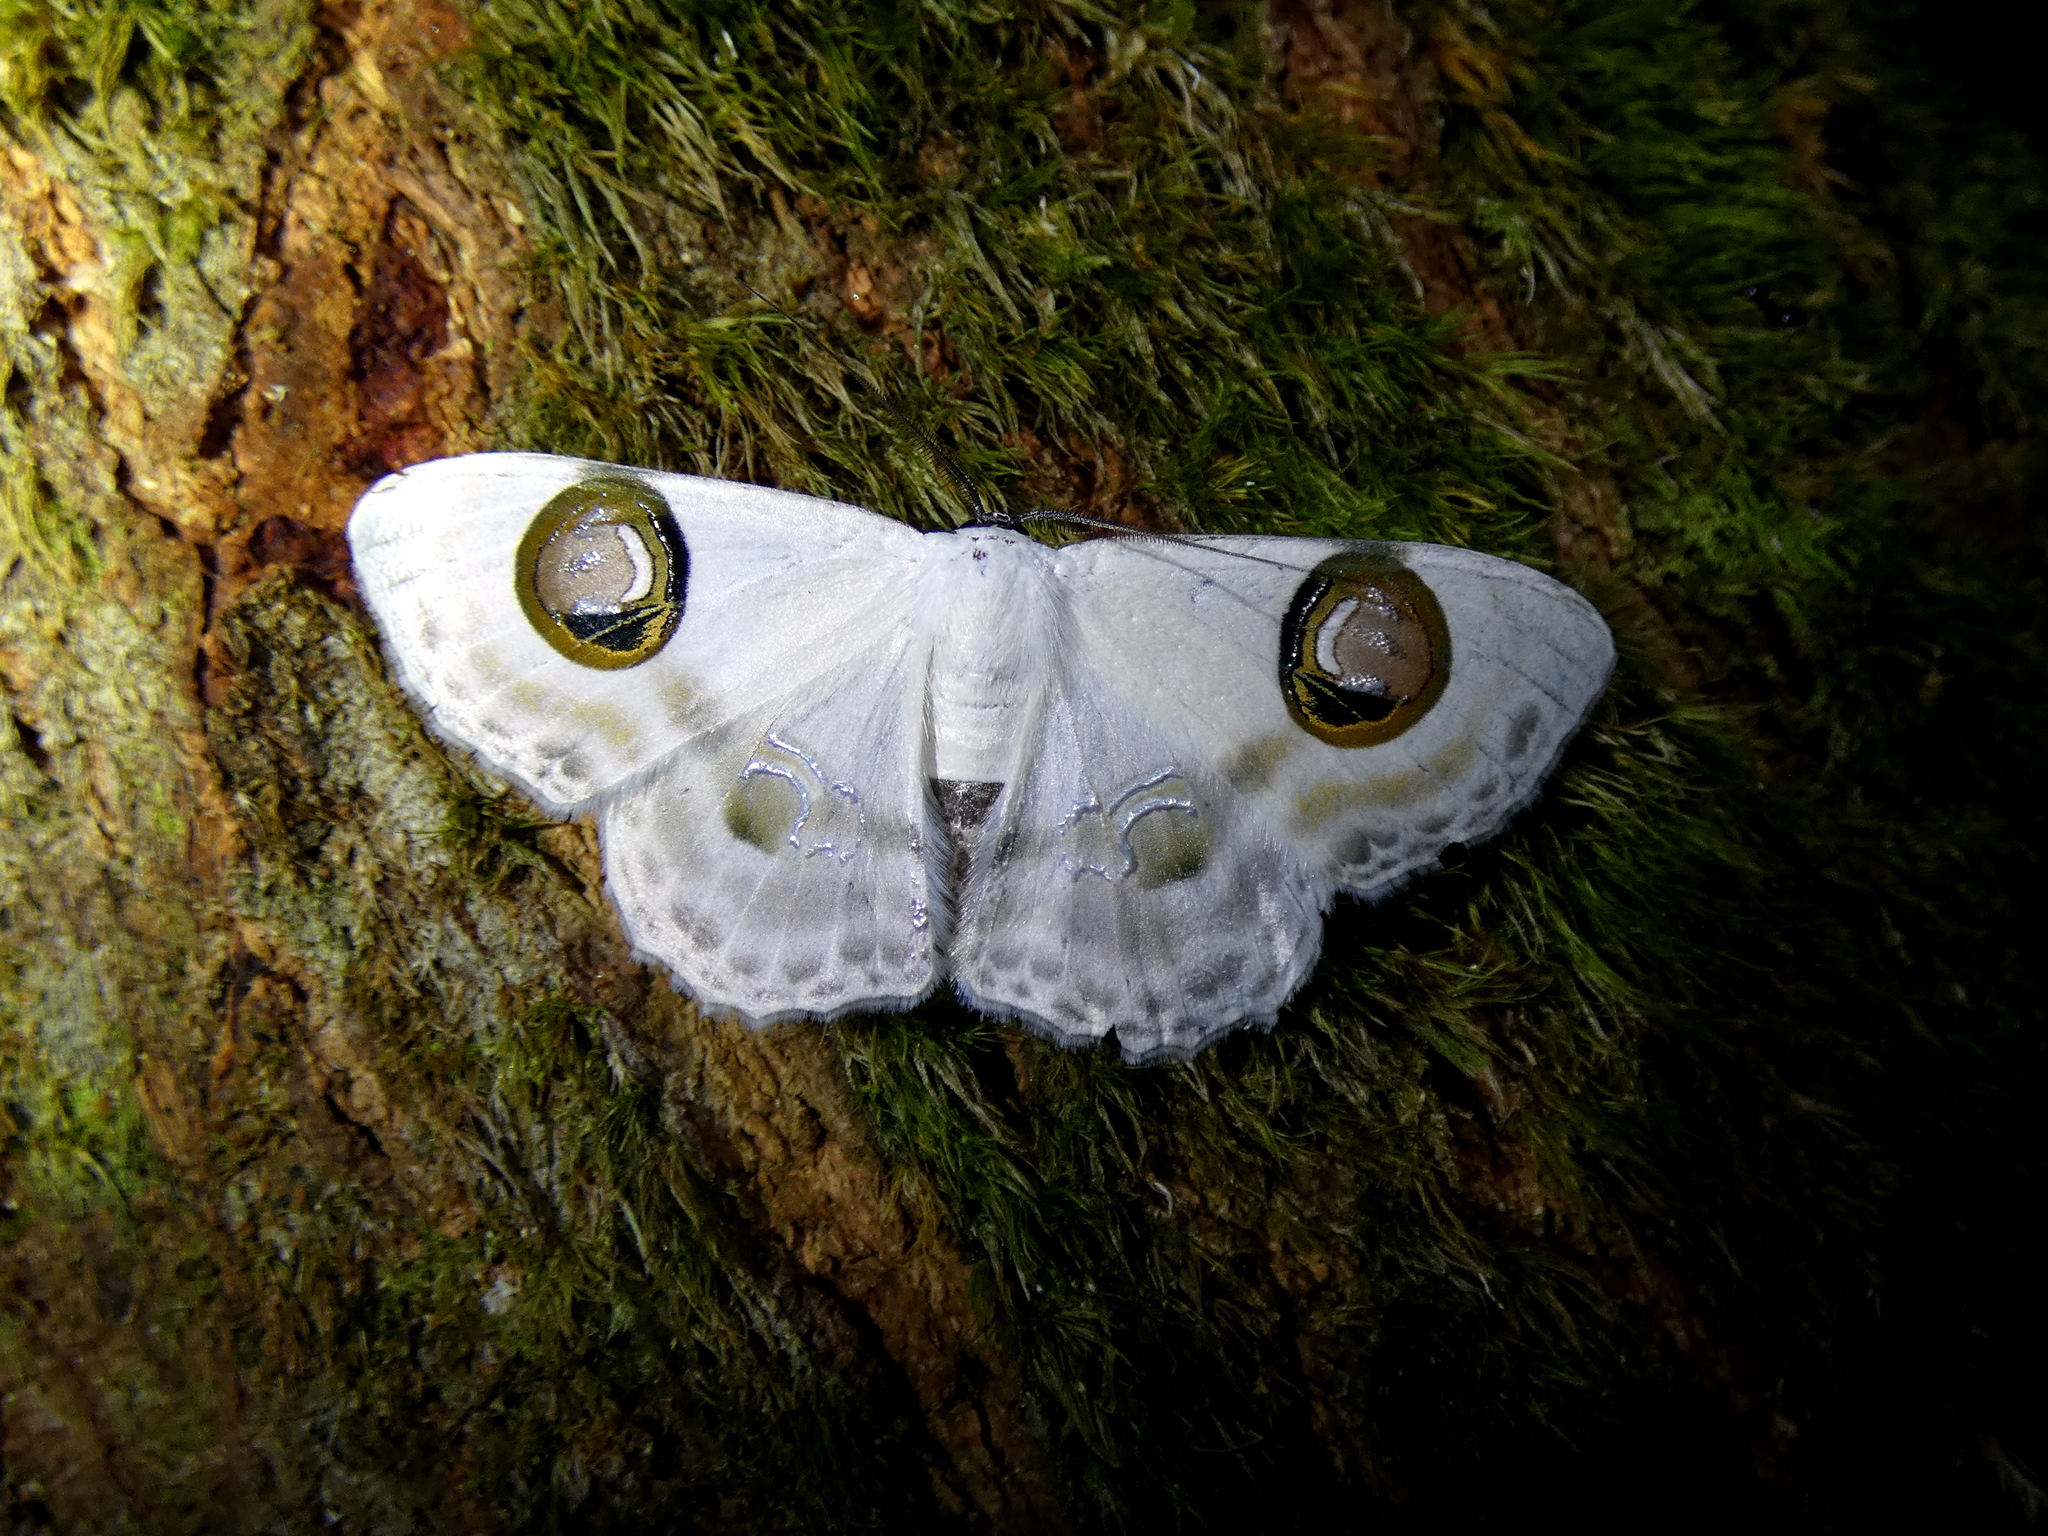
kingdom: Animalia
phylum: Arthropoda
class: Insecta
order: Lepidoptera
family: Geometridae
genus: Problepsis
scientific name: Problepsis plenorbis
